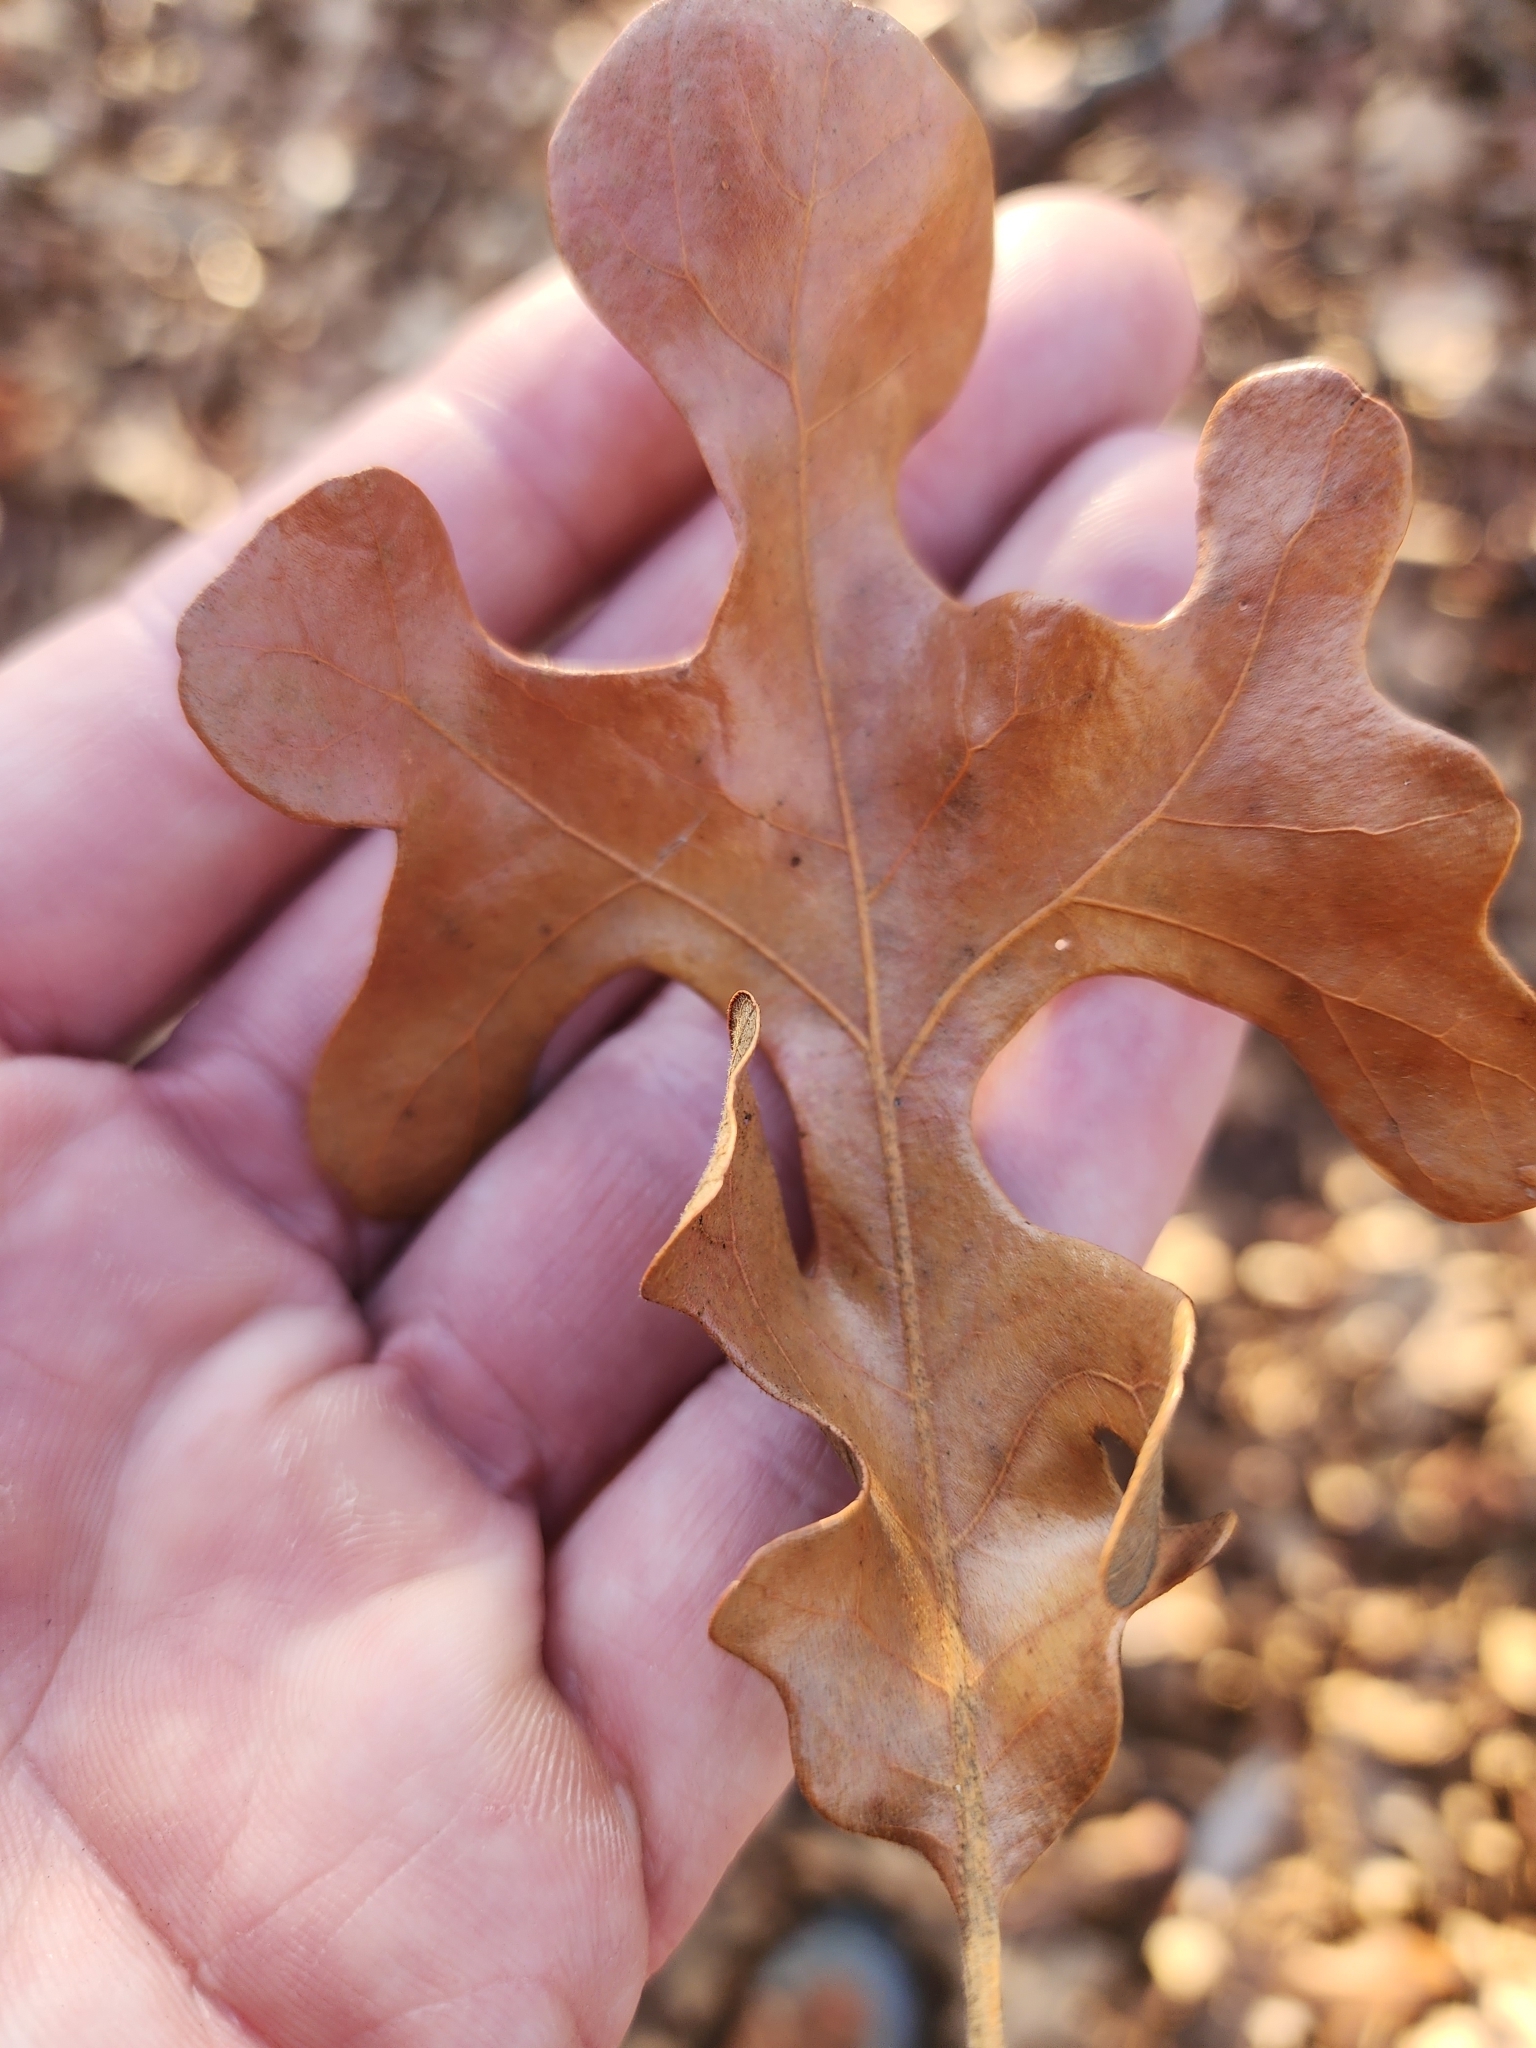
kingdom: Plantae
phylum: Tracheophyta
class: Magnoliopsida
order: Fagales
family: Fagaceae
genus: Quercus
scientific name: Quercus stellata
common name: Post oak
